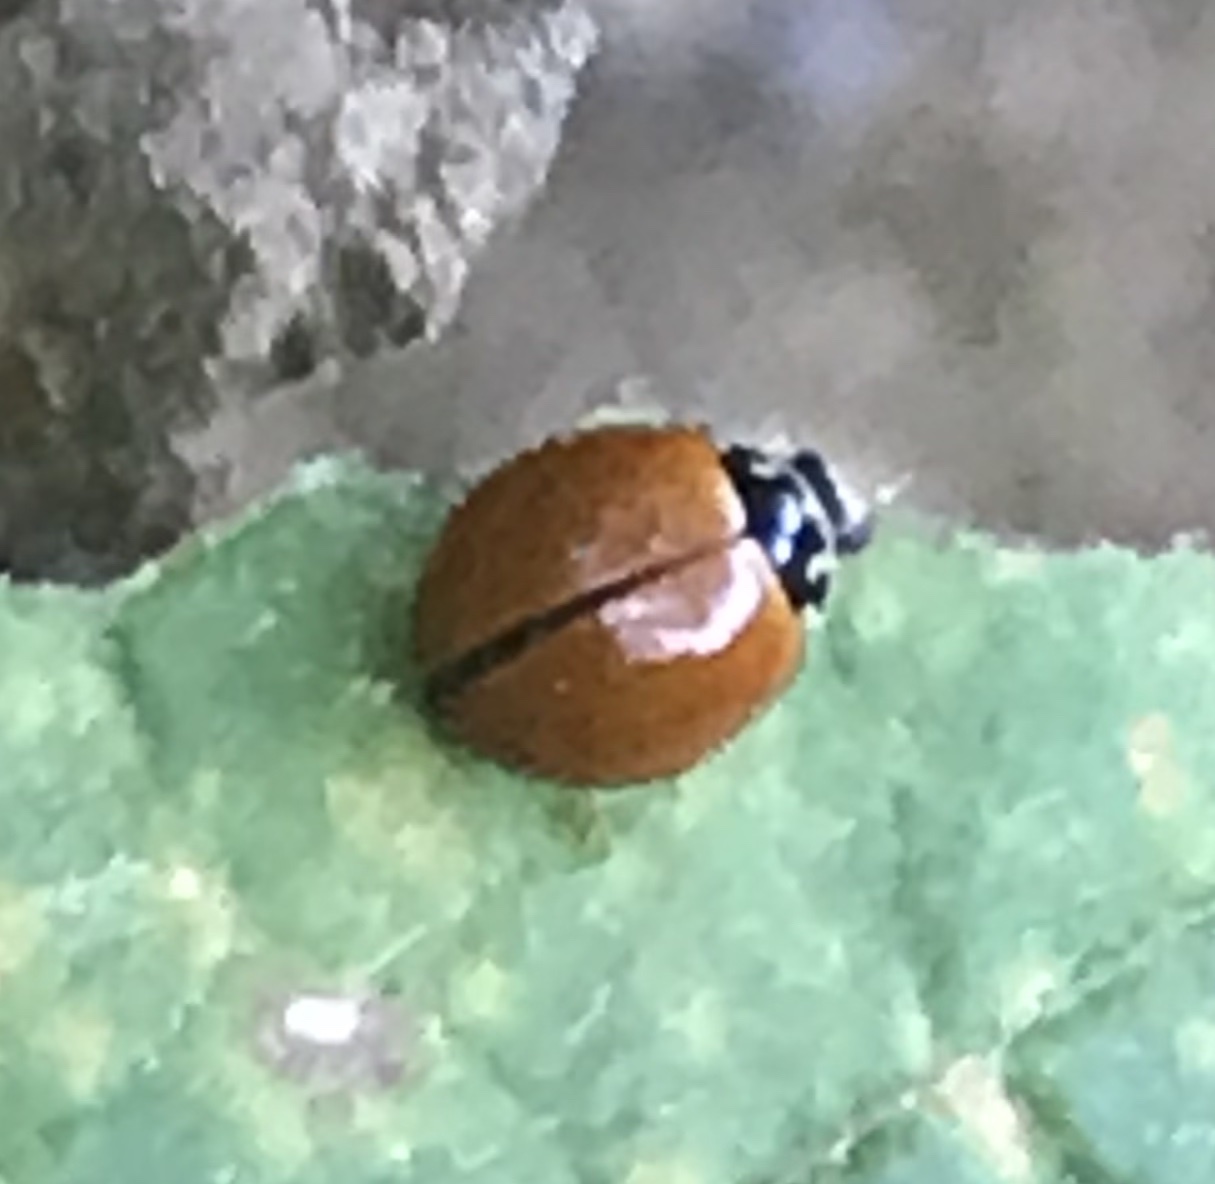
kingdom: Animalia
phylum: Arthropoda
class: Insecta
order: Coleoptera
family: Coccinellidae
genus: Cycloneda
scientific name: Cycloneda munda
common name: Polished lady beetle
